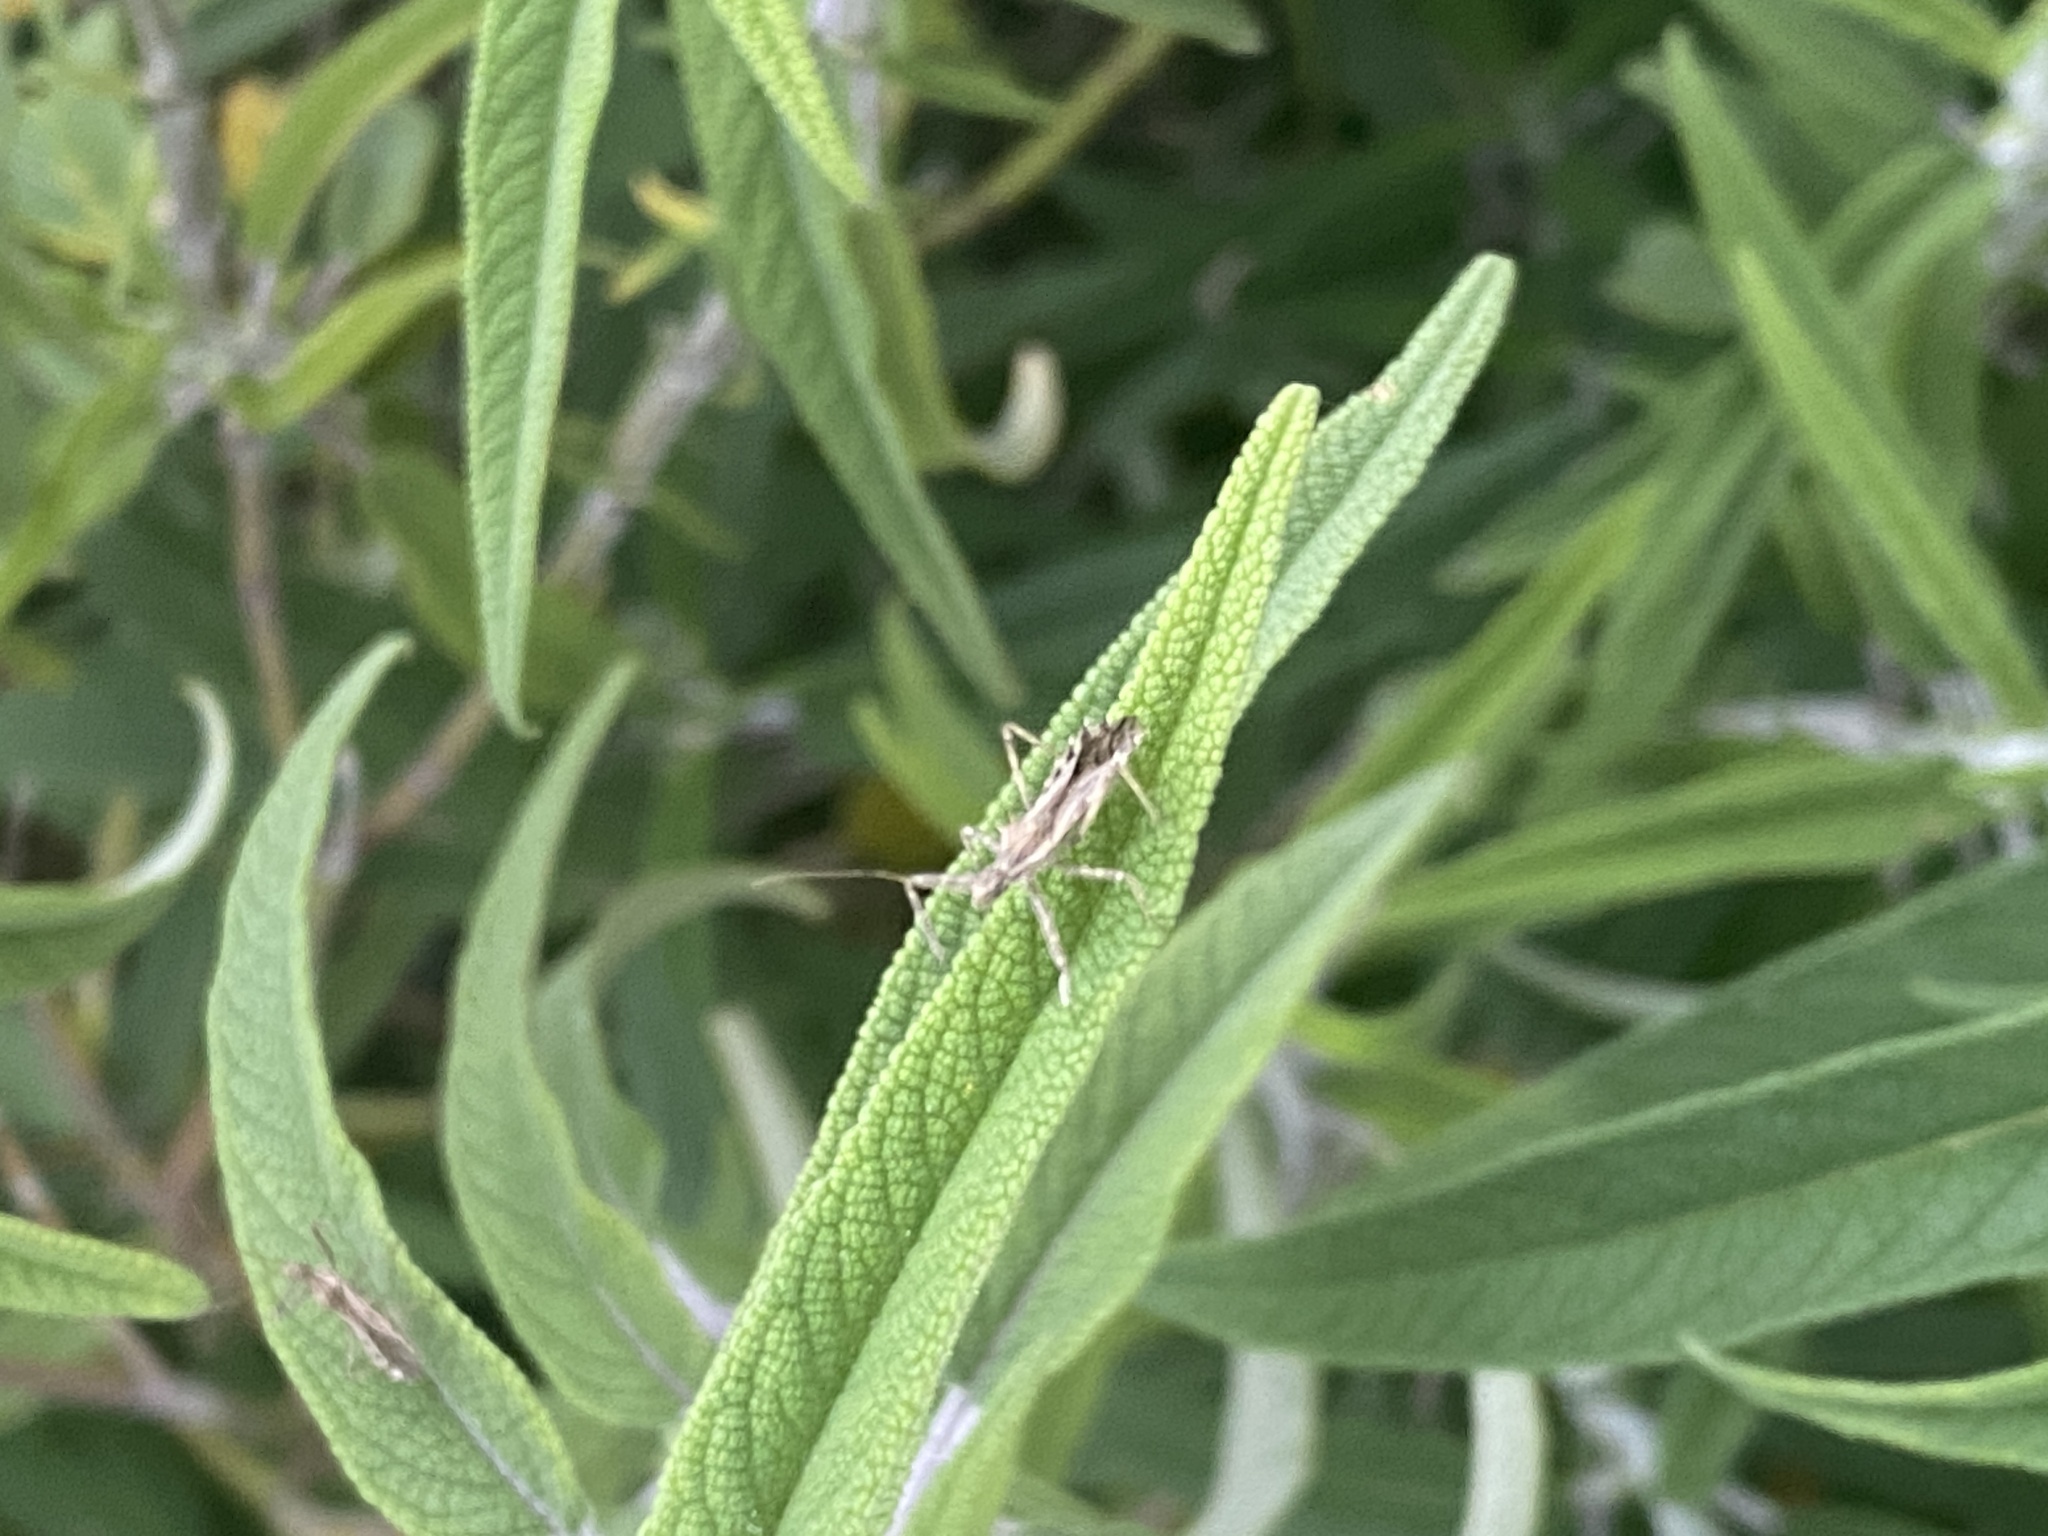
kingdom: Animalia
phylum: Arthropoda
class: Insecta
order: Hemiptera
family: Reduviidae
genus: Atrachelus
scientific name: Atrachelus cinereus
